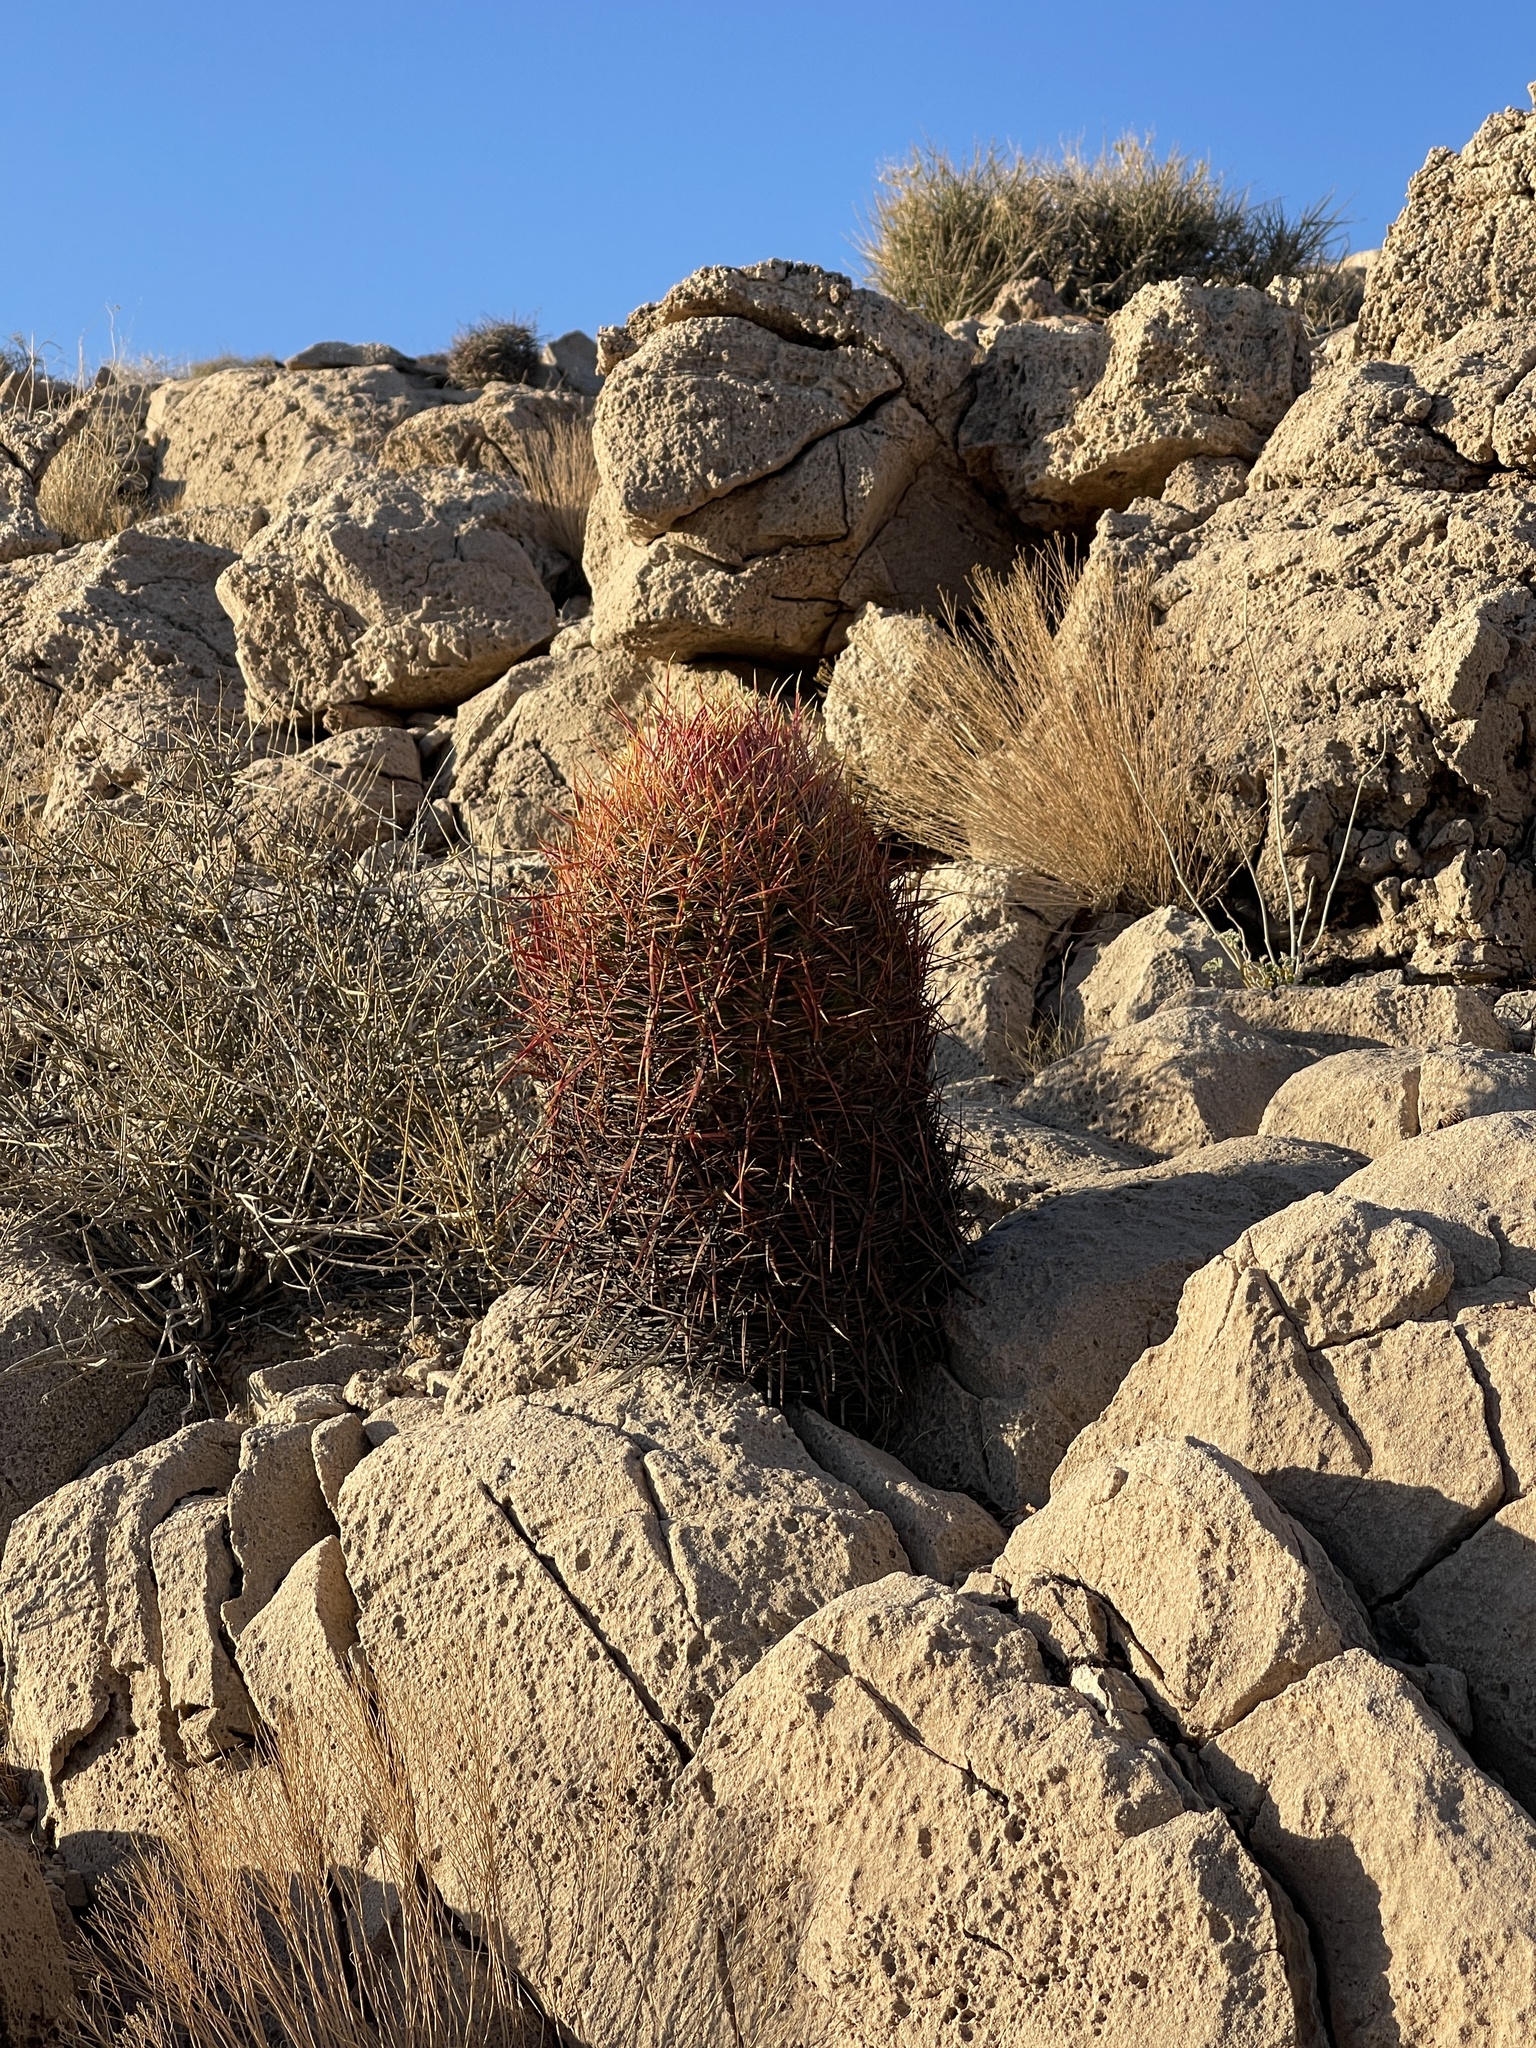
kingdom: Plantae
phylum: Tracheophyta
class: Magnoliopsida
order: Caryophyllales
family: Cactaceae
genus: Ferocactus
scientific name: Ferocactus cylindraceus
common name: California barrel cactus
